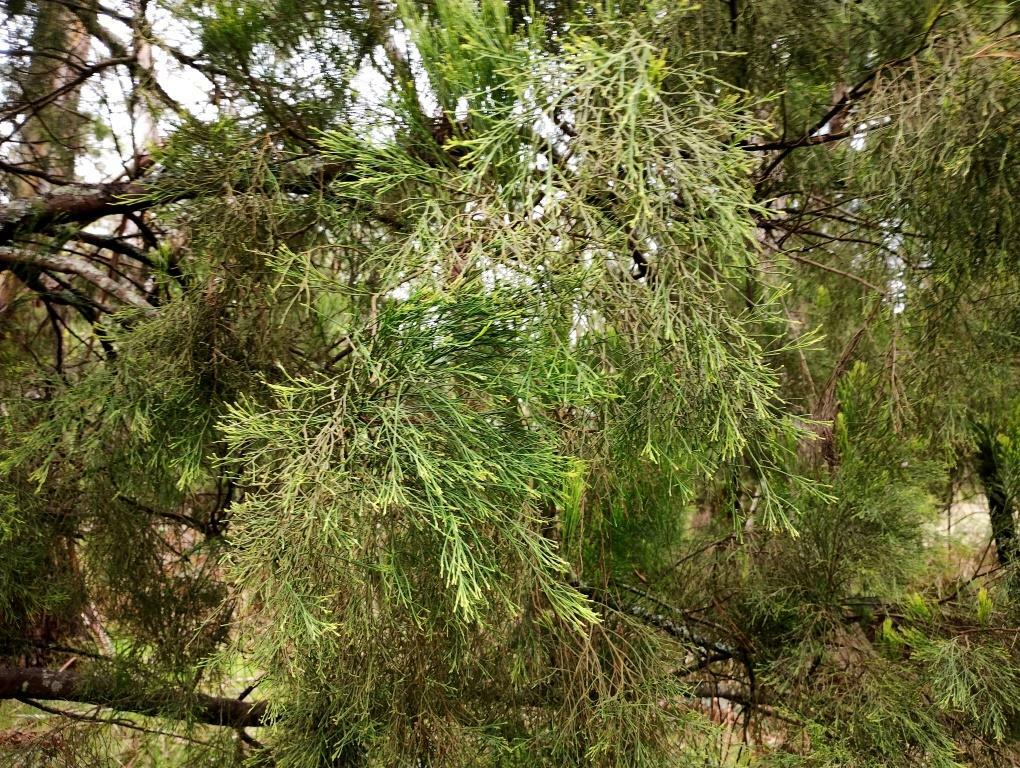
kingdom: Plantae
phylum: Tracheophyta
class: Magnoliopsida
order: Santalales
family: Santalaceae
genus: Exocarpos
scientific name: Exocarpos cupressiformis
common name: Cherry ballart
